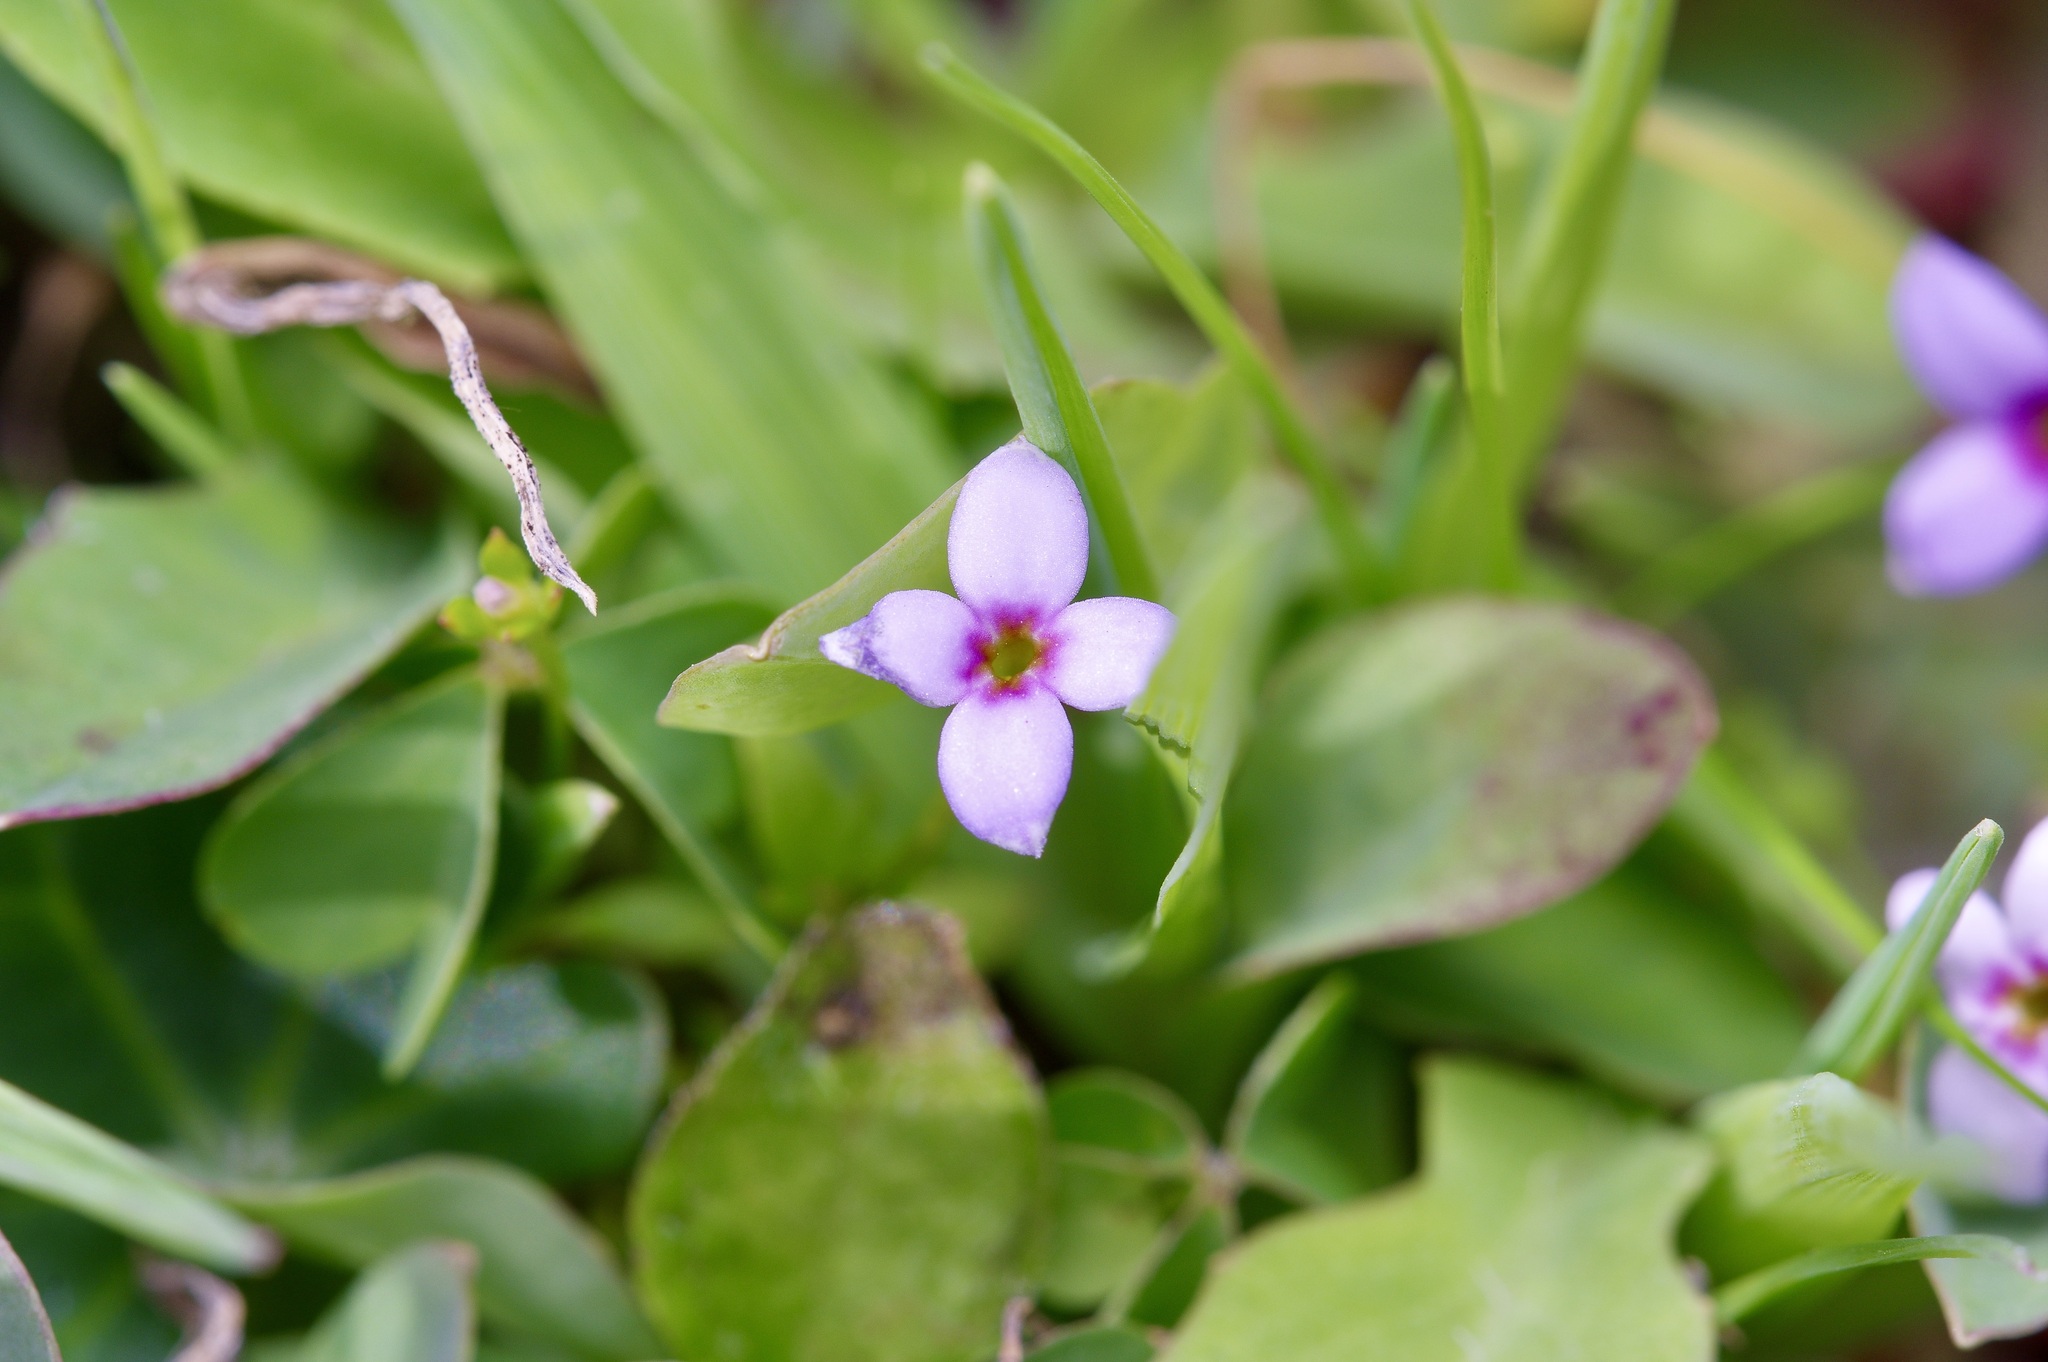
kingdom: Plantae
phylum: Tracheophyta
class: Magnoliopsida
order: Gentianales
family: Rubiaceae
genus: Houstonia
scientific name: Houstonia pusilla
